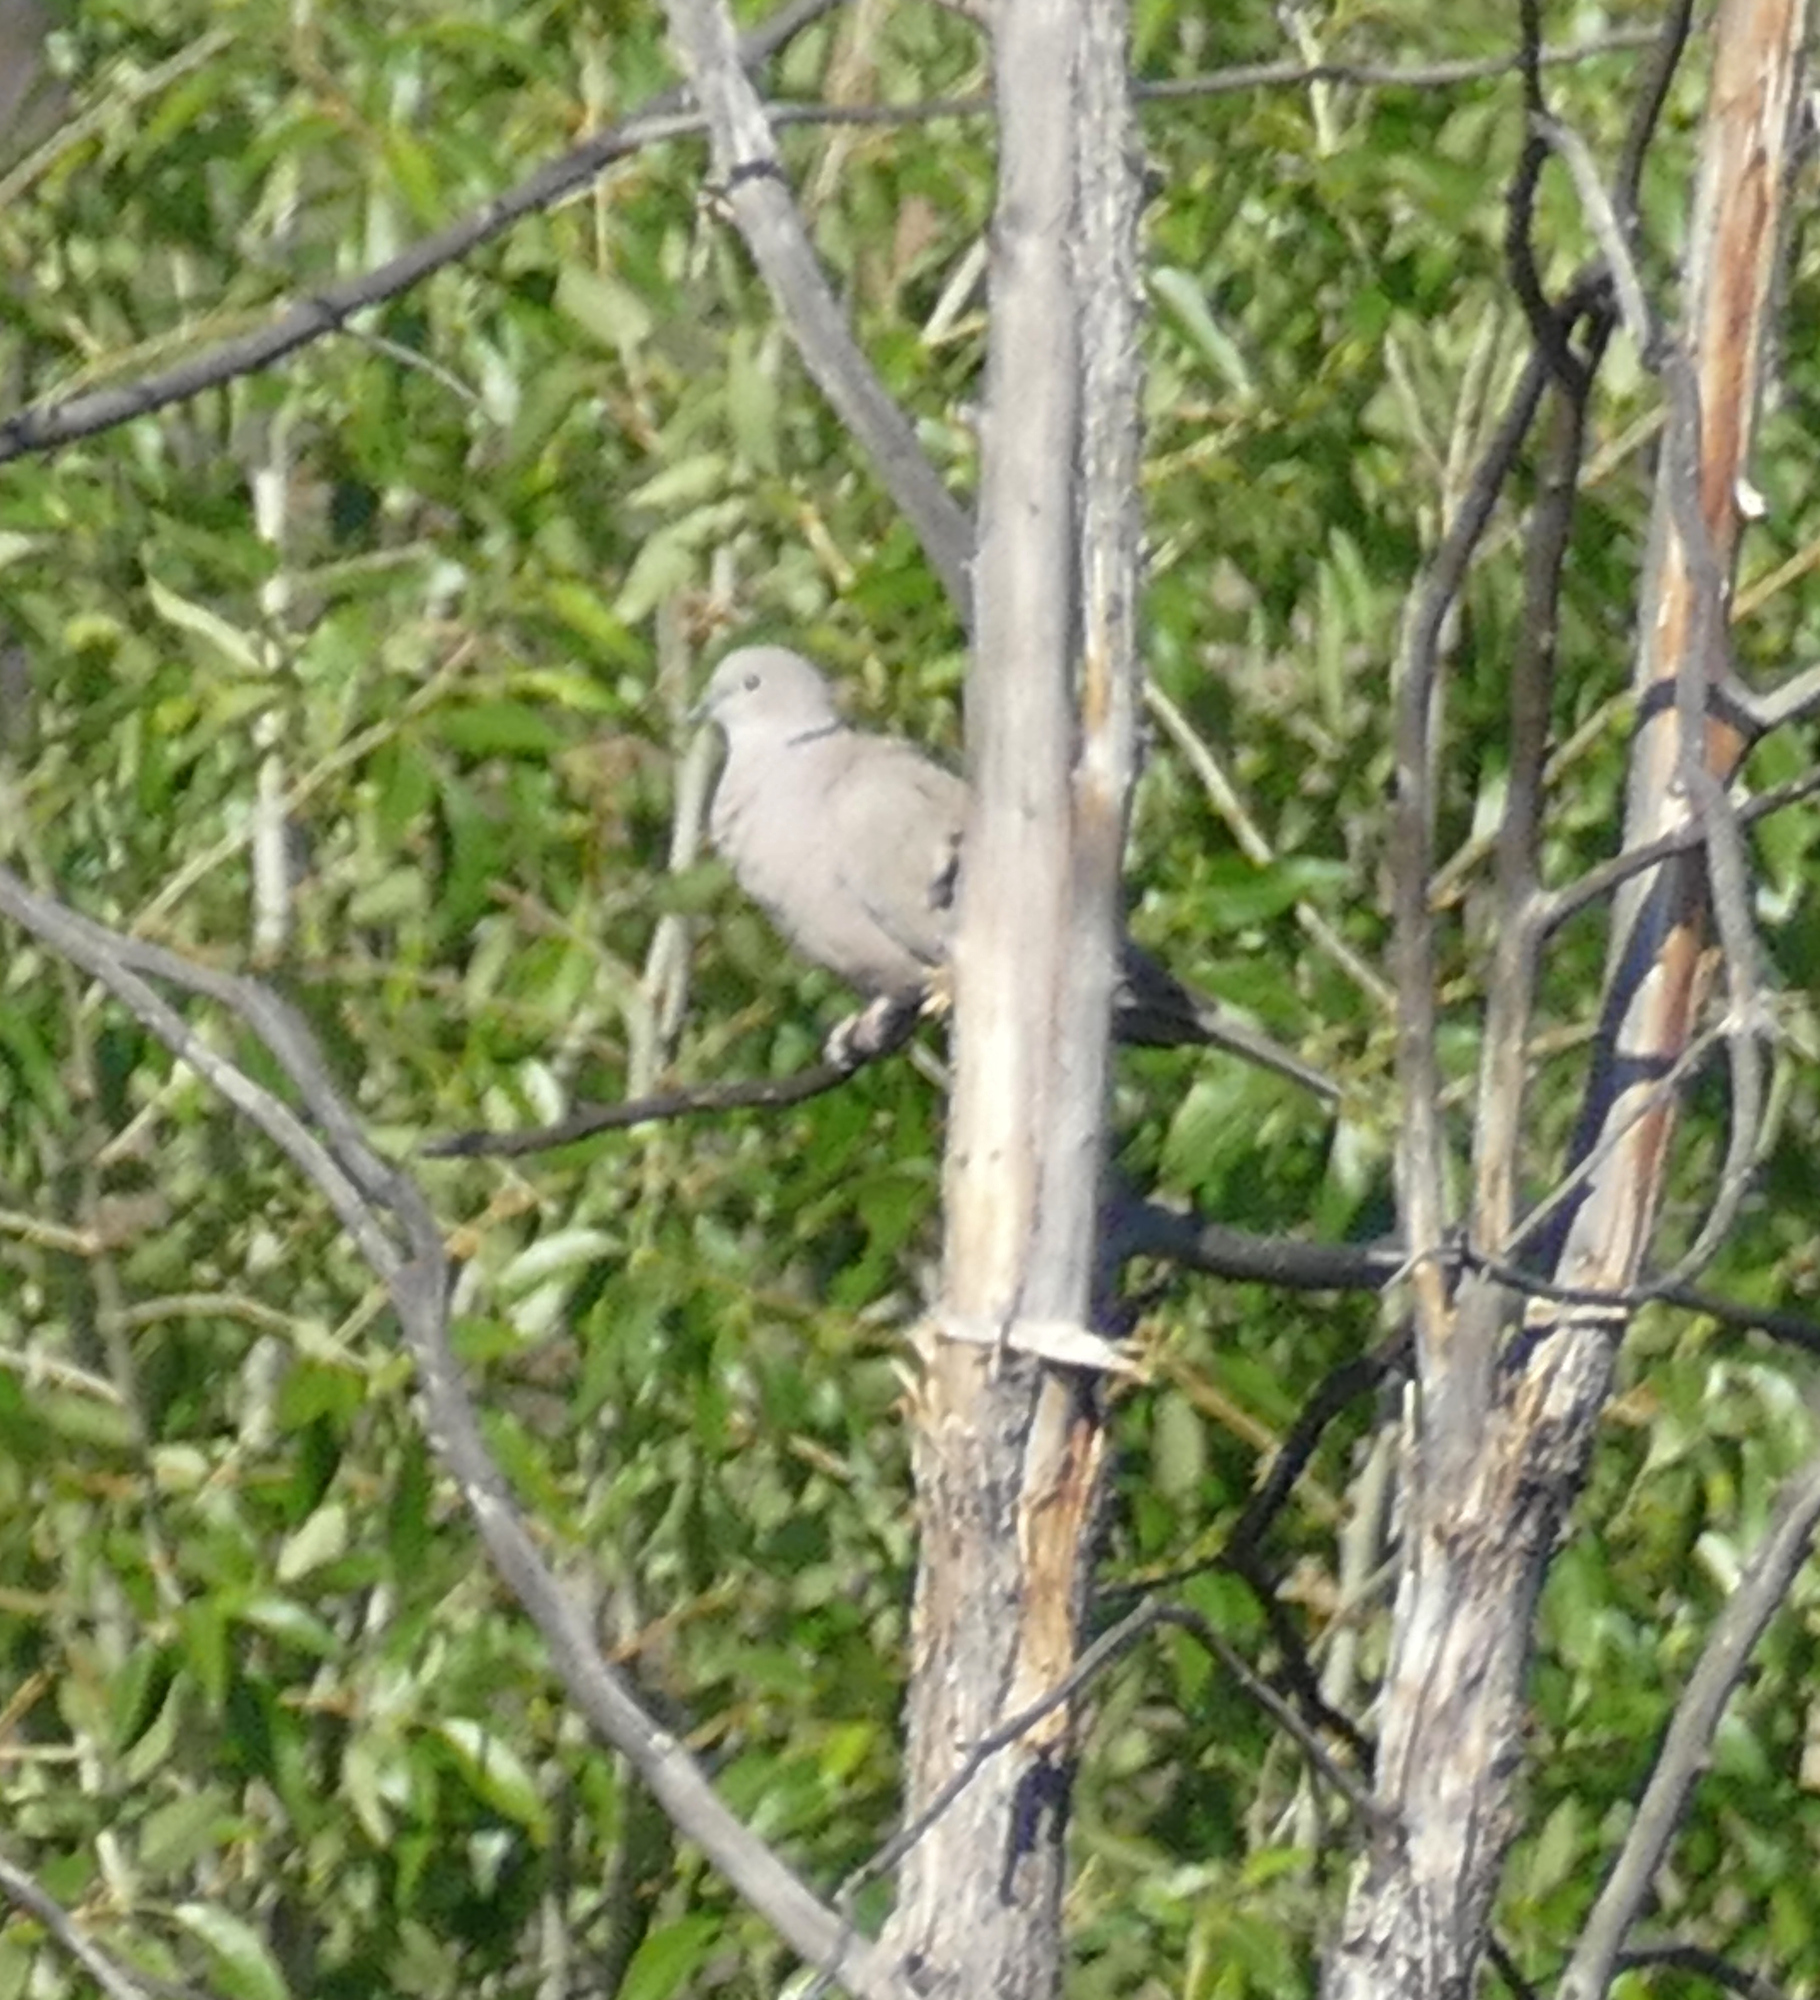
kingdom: Animalia
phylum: Chordata
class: Aves
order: Columbiformes
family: Columbidae
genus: Streptopelia
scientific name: Streptopelia decaocto
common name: Eurasian collared dove
